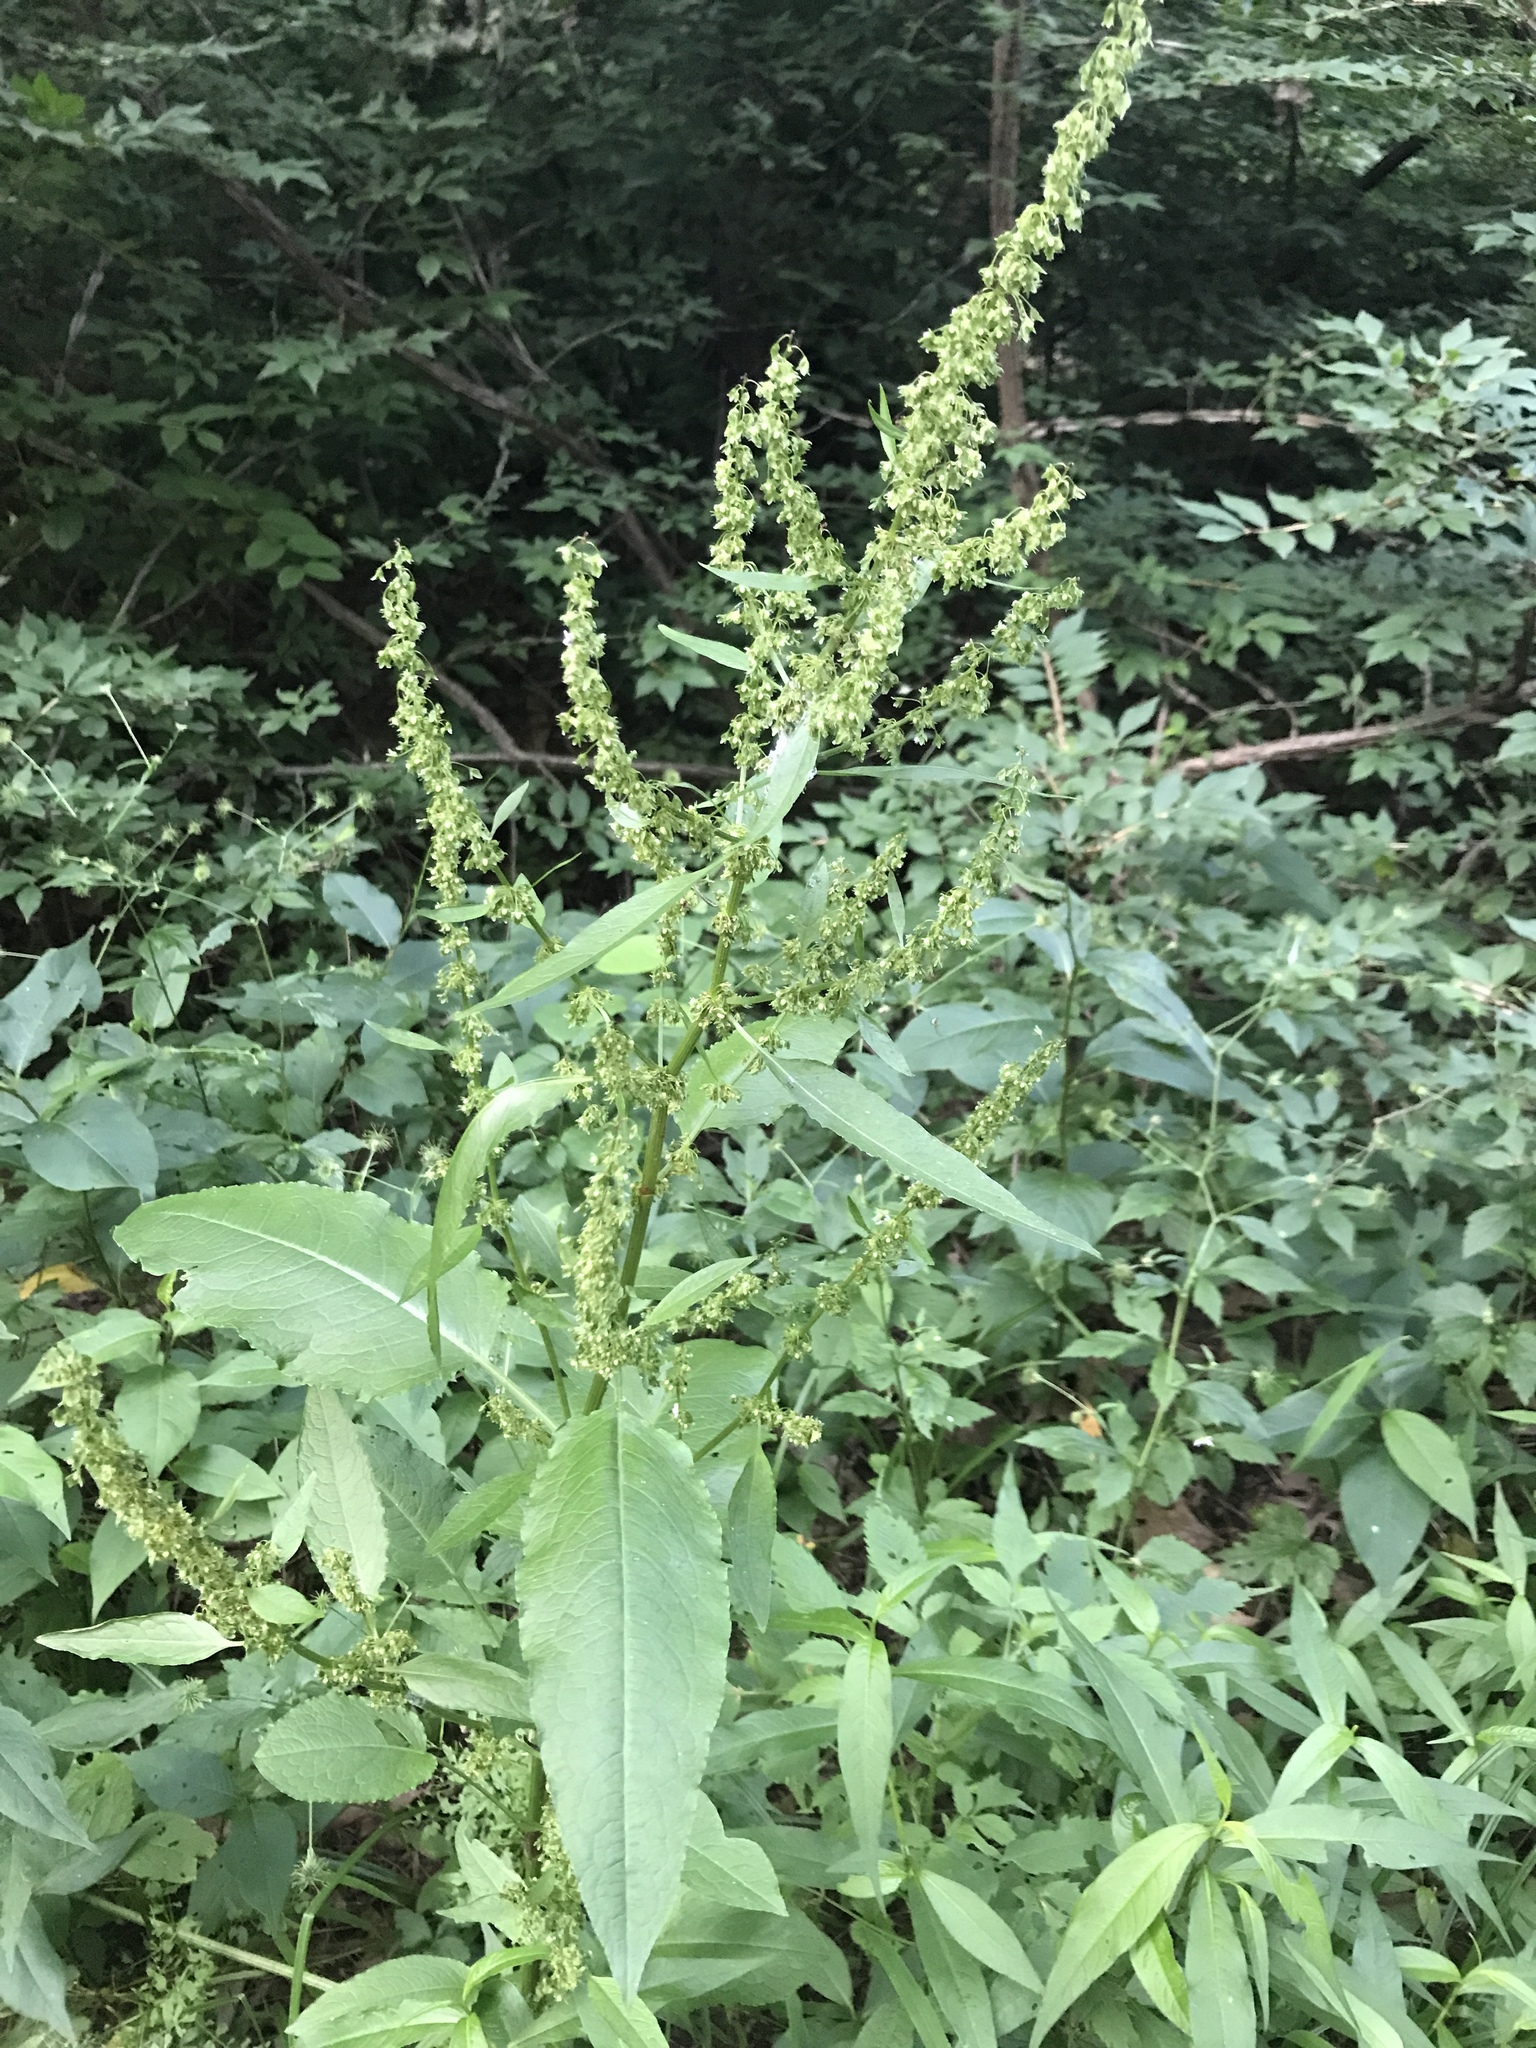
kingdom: Plantae
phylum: Tracheophyta
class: Magnoliopsida
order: Caryophyllales
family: Polygonaceae
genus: Rumex
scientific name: Rumex obtusifolius
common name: Bitter dock
